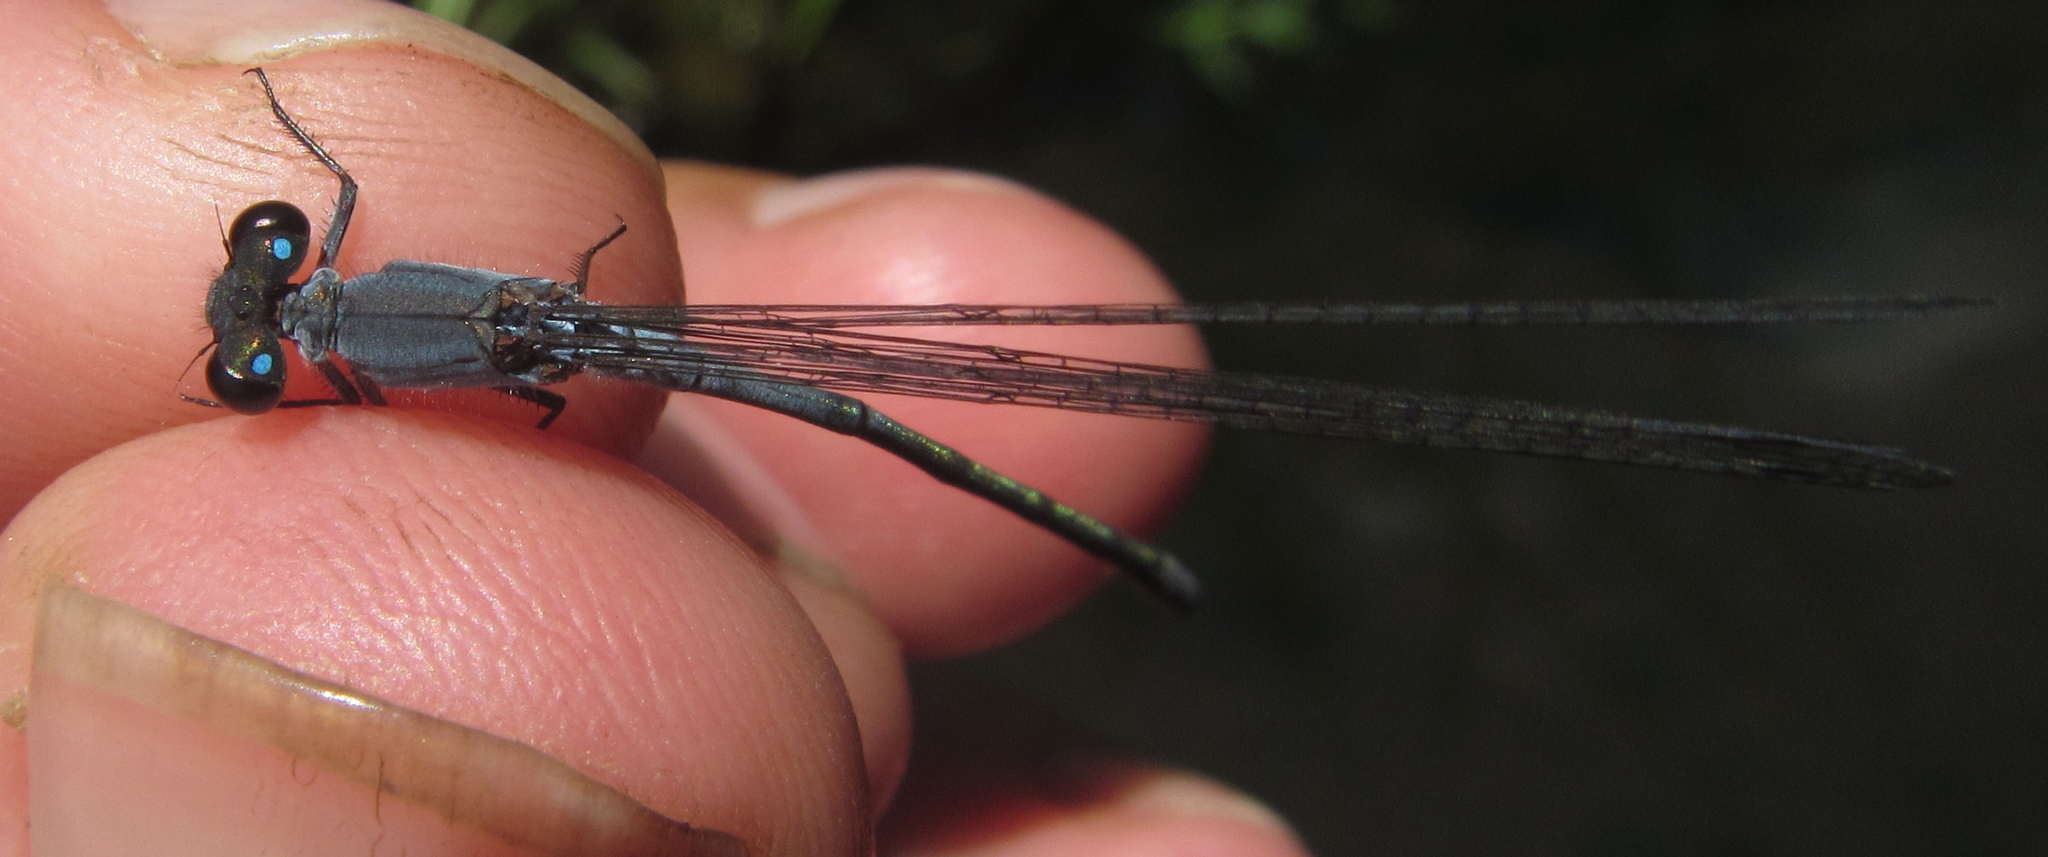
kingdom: Animalia
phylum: Arthropoda
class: Insecta
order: Odonata
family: Coenagrionidae
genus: Pseudagrion
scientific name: Pseudagrion salisburyense
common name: Slate sprite
